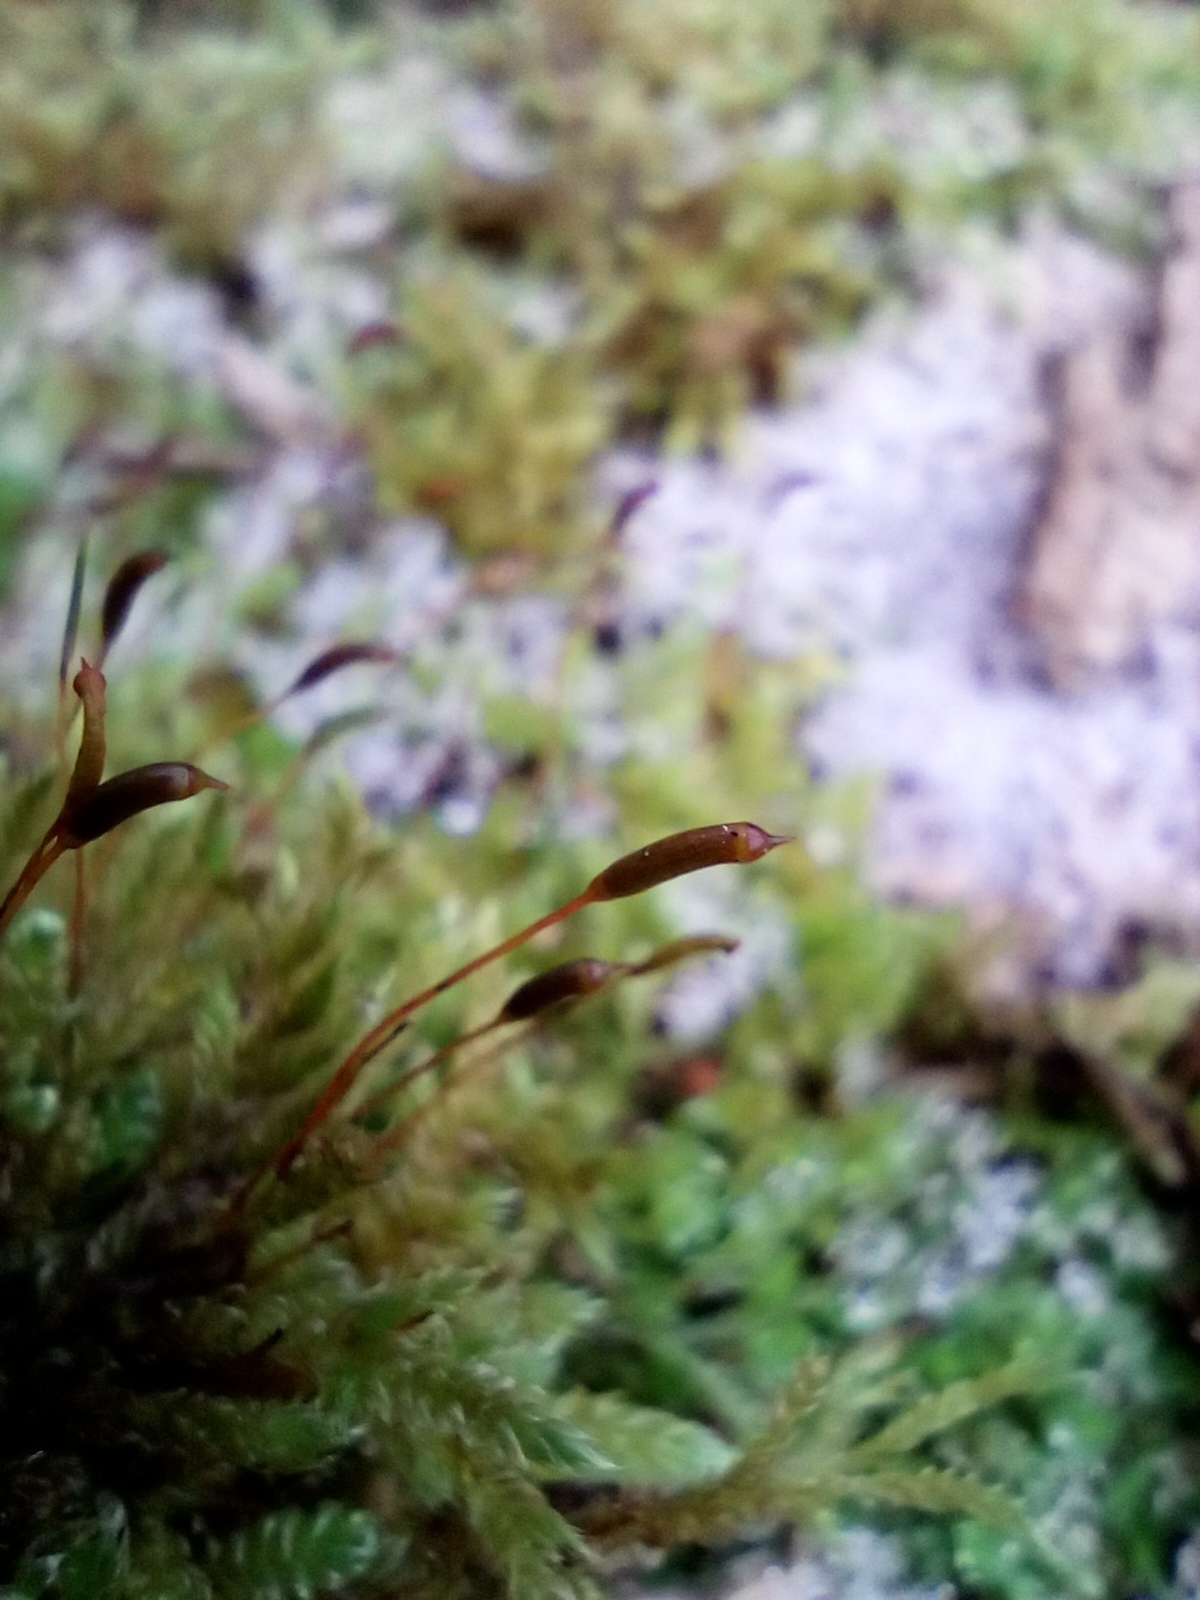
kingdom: Plantae
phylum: Bryophyta
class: Bryopsida
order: Hypnales
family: Hypnaceae
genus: Hypnum
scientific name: Hypnum cupressiforme
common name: Cypress-leaved plait-moss
